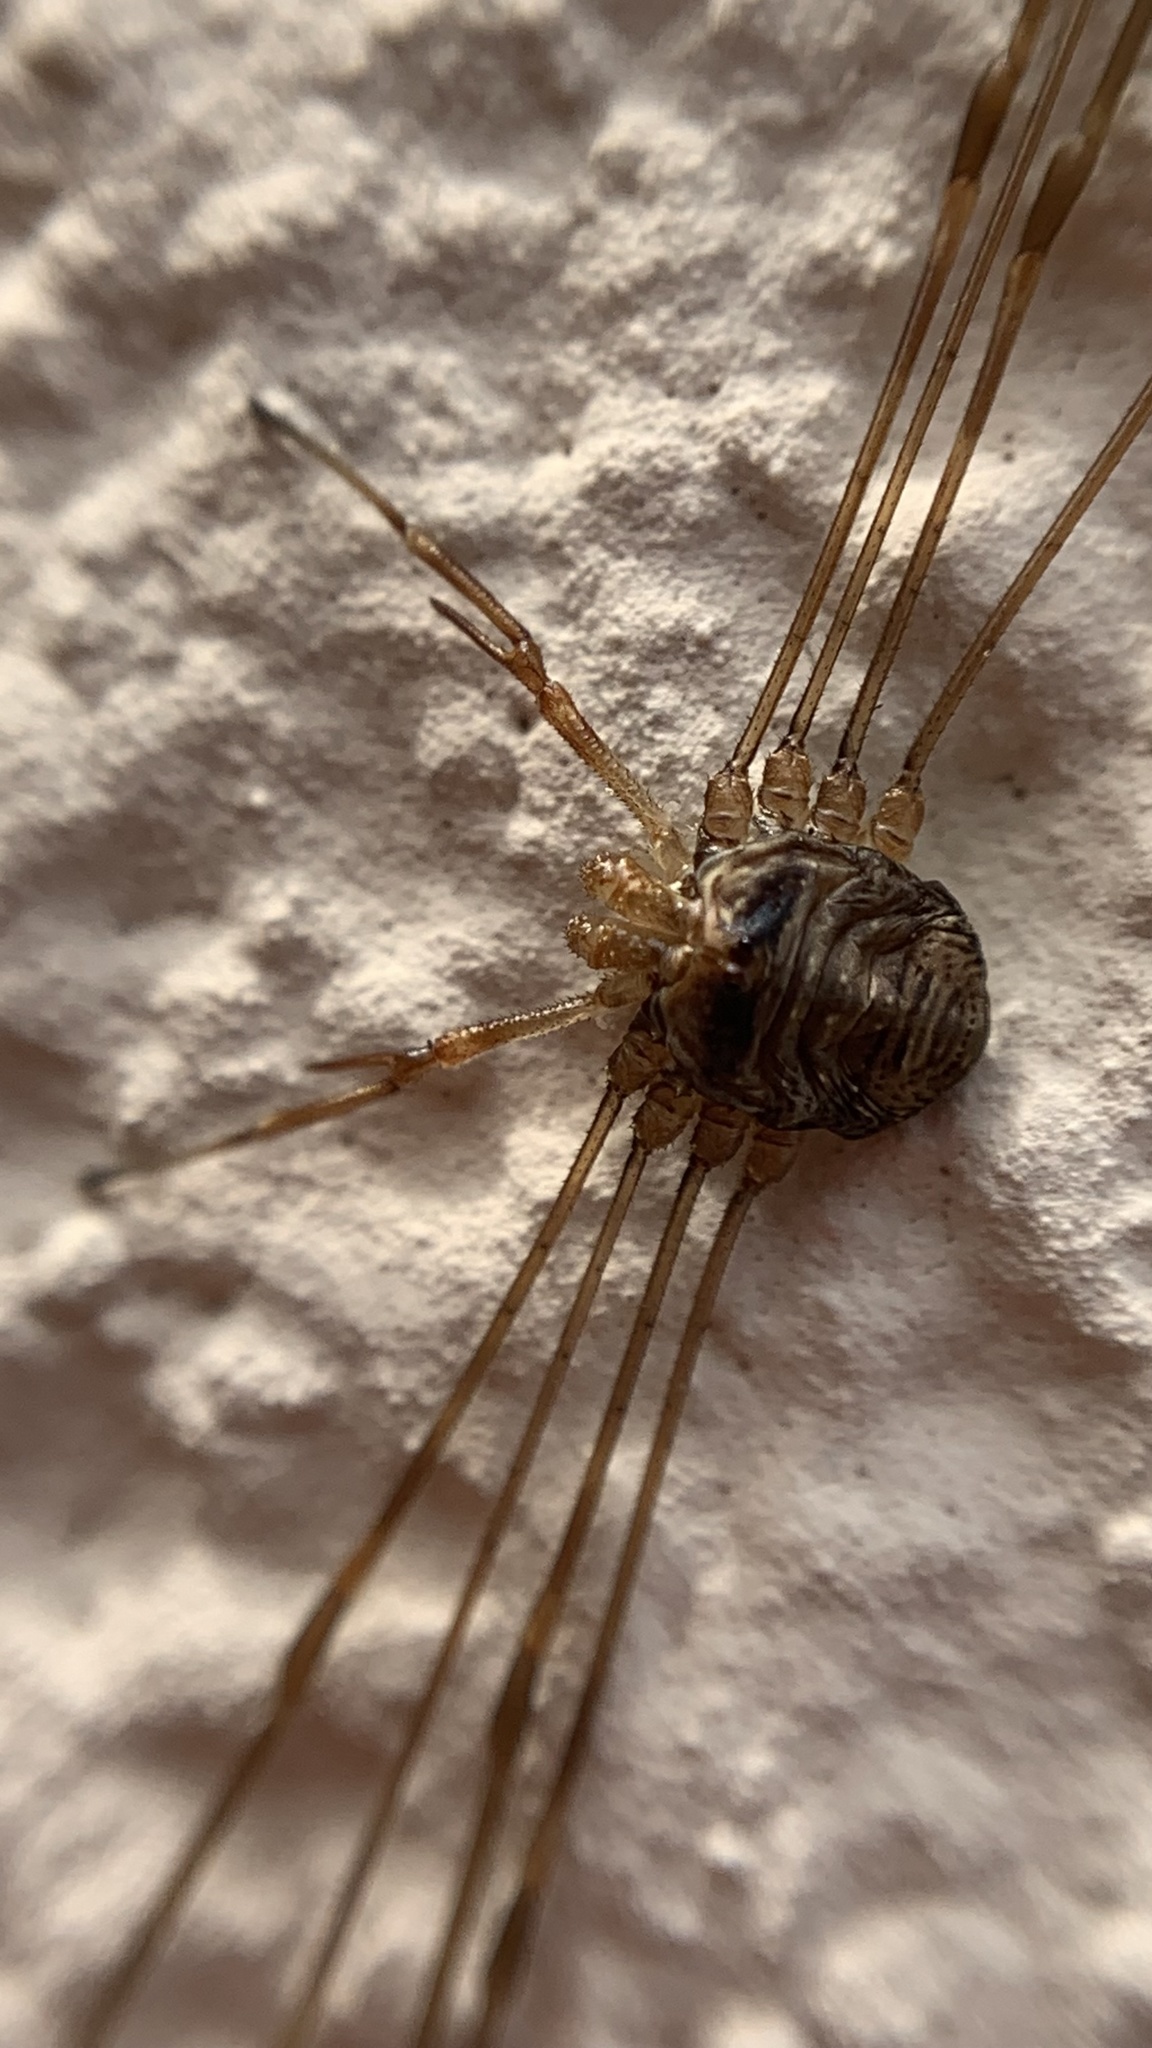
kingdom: Animalia
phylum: Arthropoda
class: Arachnida
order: Opiliones
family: Phalangiidae
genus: Dicranopalpus
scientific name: Dicranopalpus ramosus
